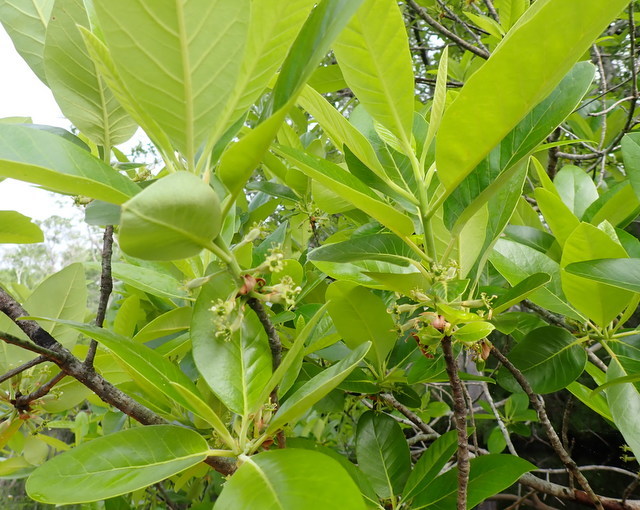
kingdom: Plantae
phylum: Tracheophyta
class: Magnoliopsida
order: Cornales
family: Nyssaceae
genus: Nyssa
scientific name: Nyssa ogeche
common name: Ogeechee tupelo
